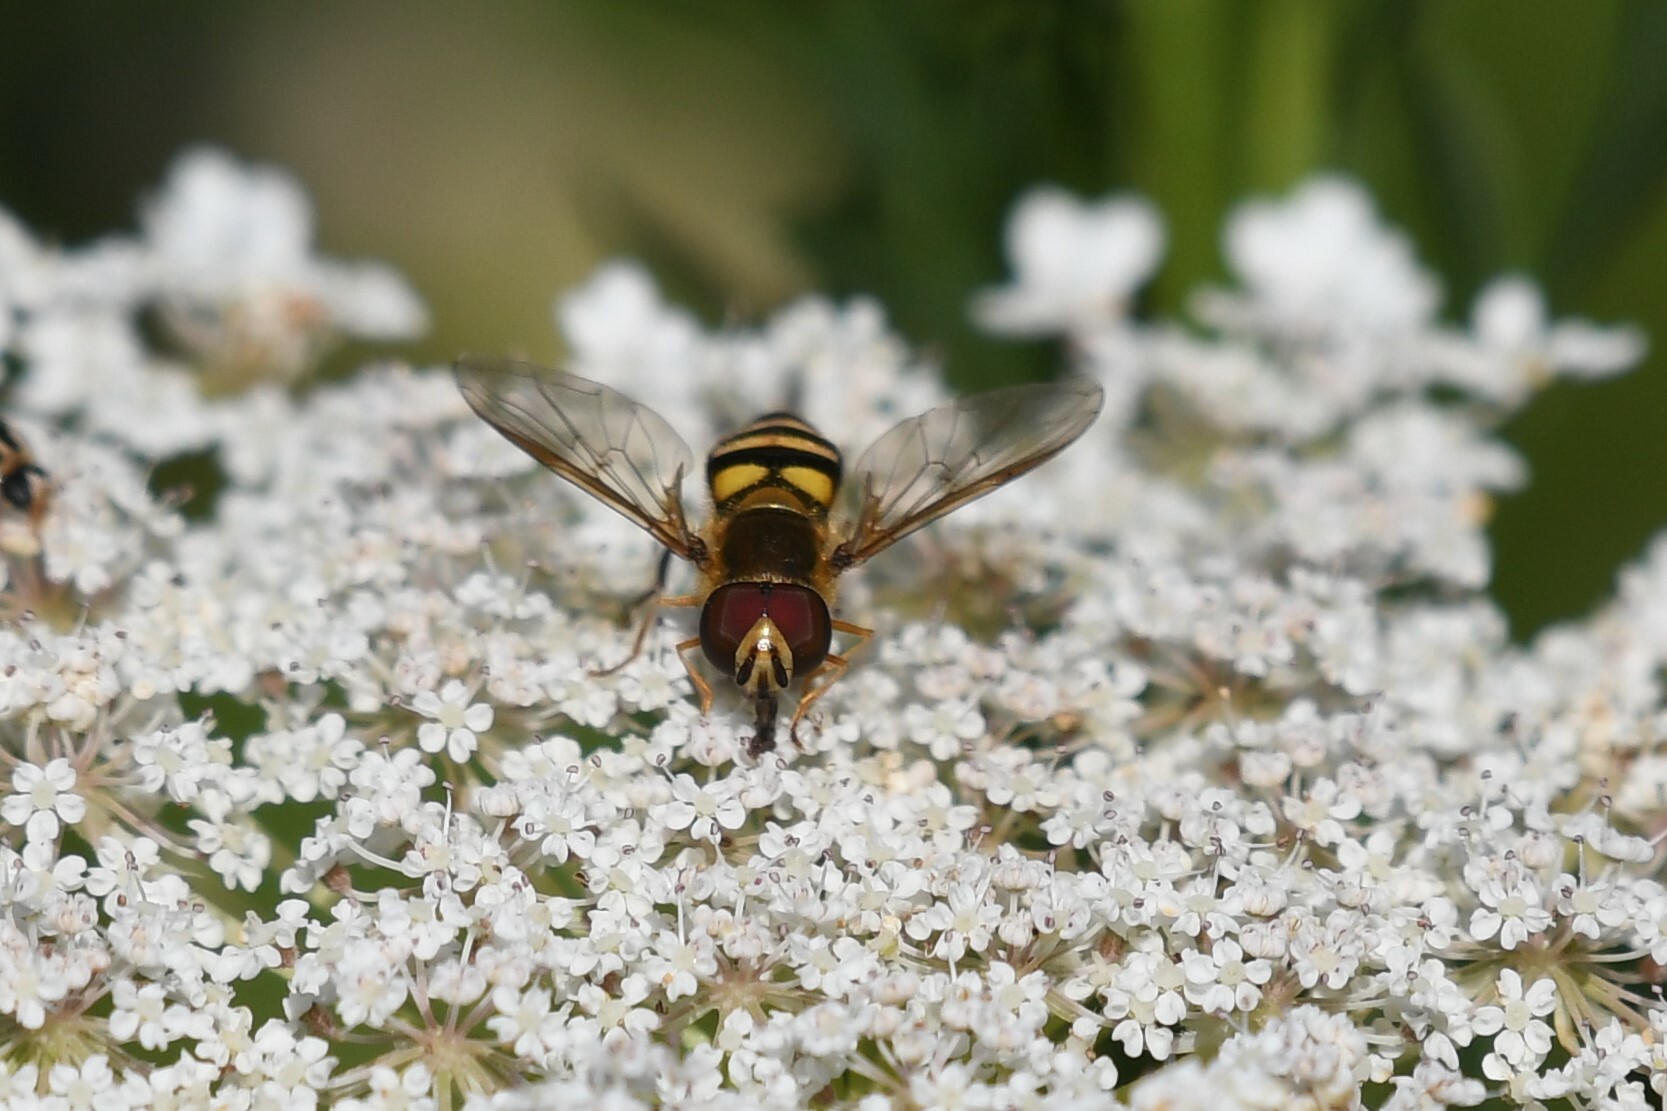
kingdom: Animalia
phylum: Arthropoda
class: Insecta
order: Diptera
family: Syrphidae
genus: Eupeodes
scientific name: Eupeodes
